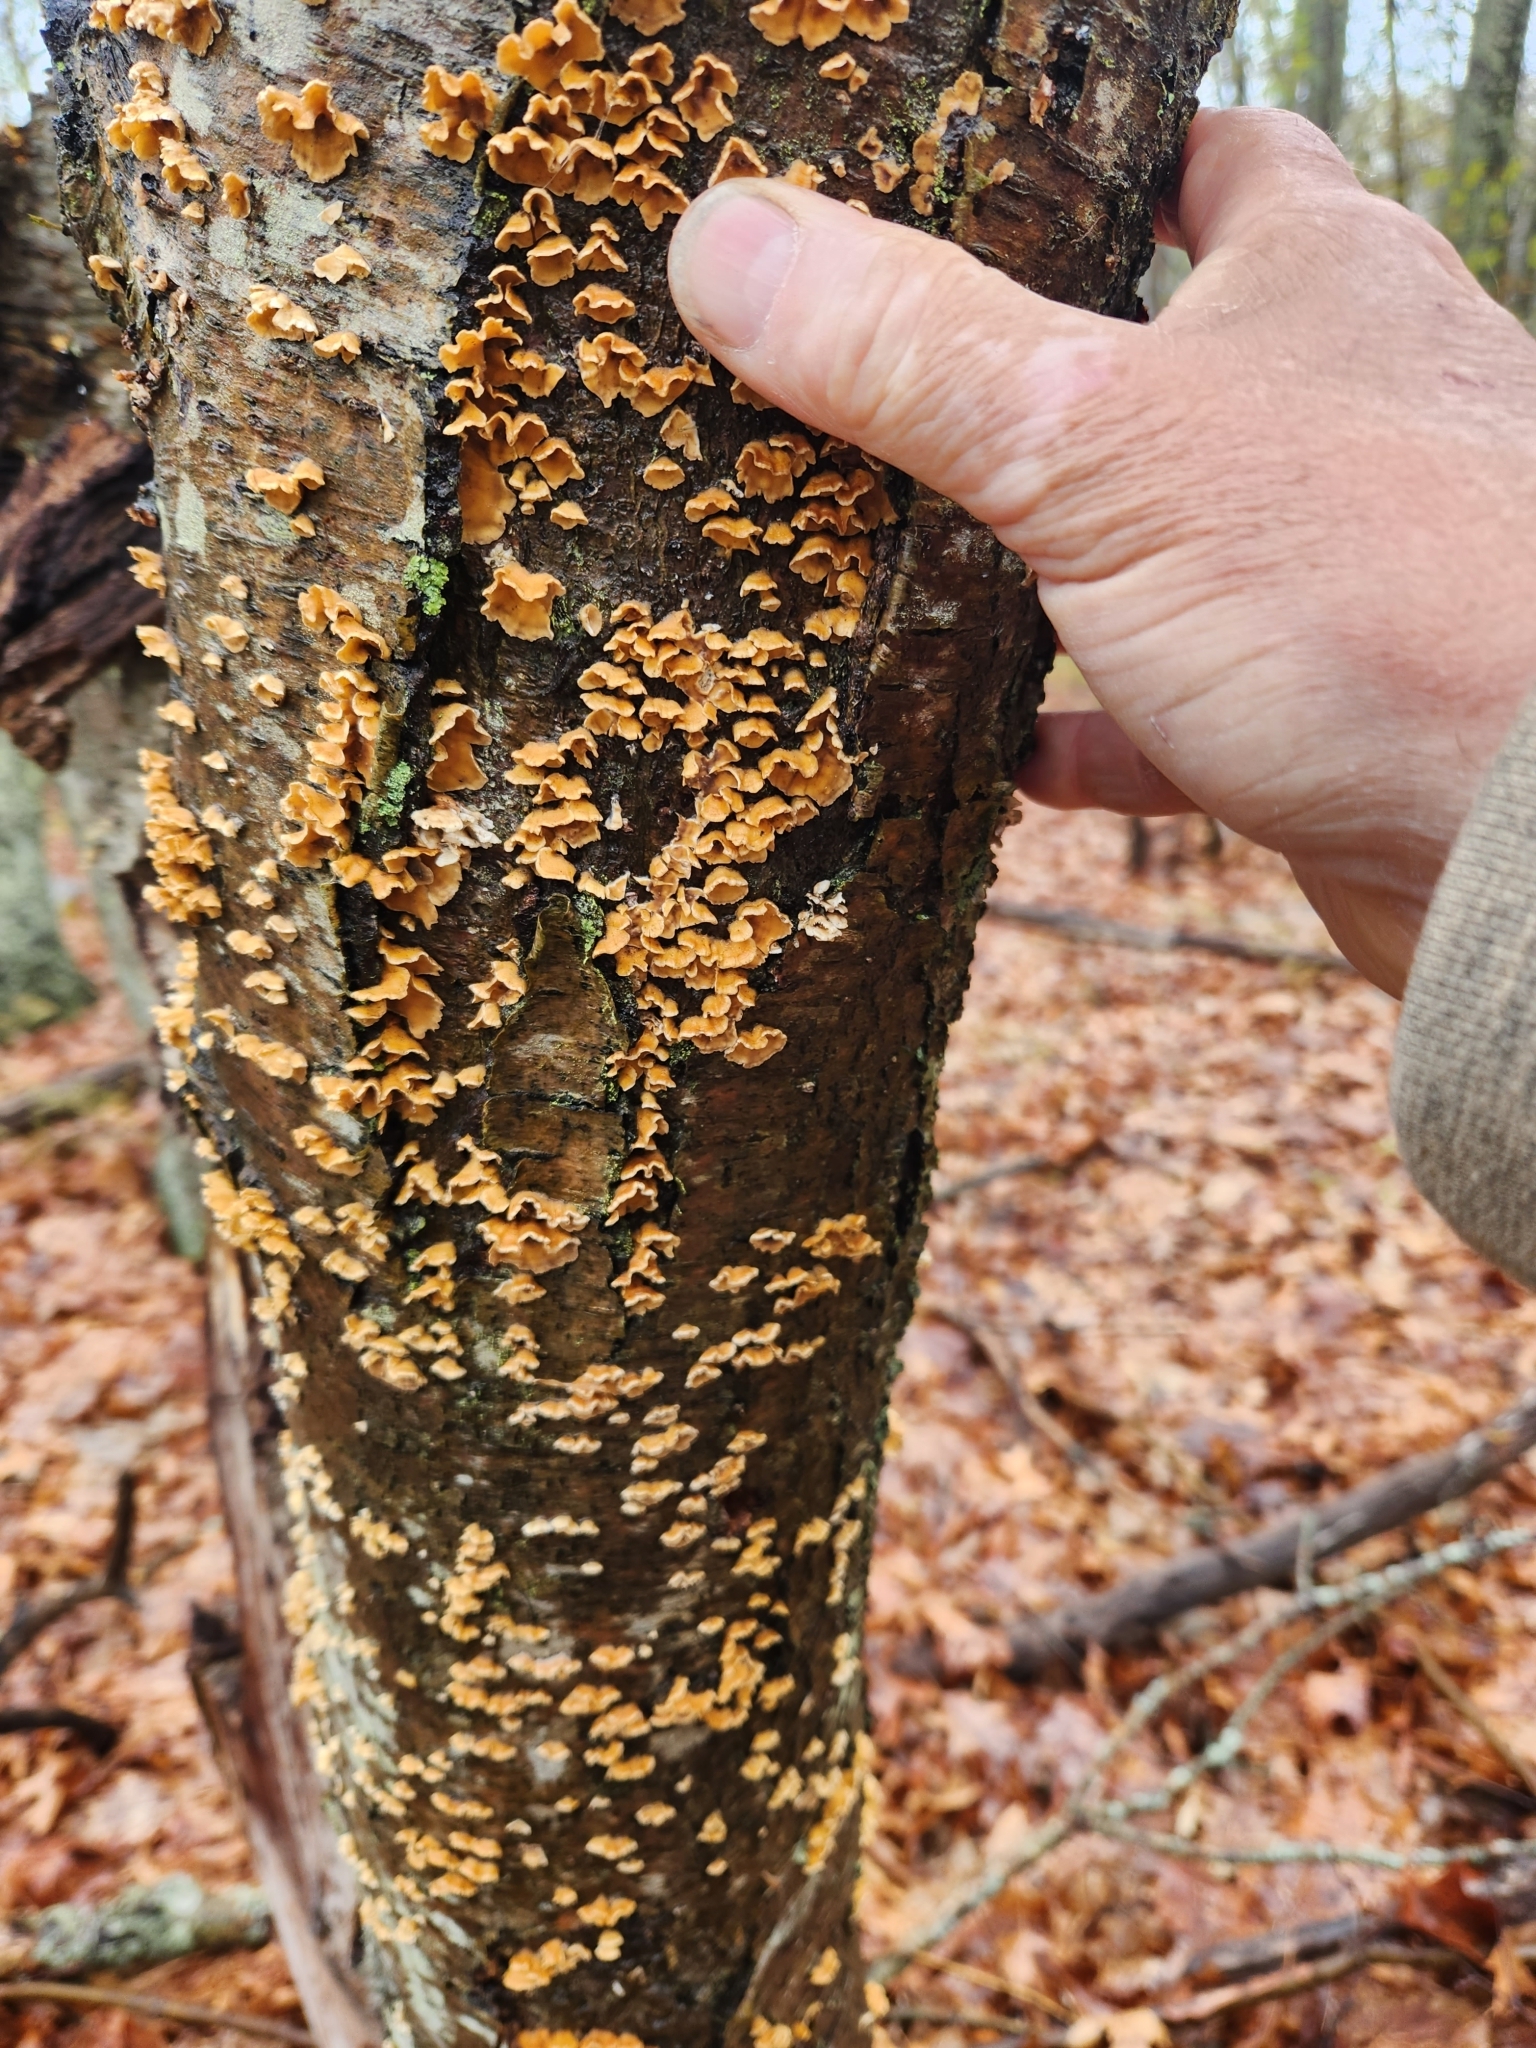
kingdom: Fungi
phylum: Basidiomycota
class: Agaricomycetes
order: Russulales
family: Stereaceae
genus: Stereum
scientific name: Stereum complicatum
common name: Crowded parchment
